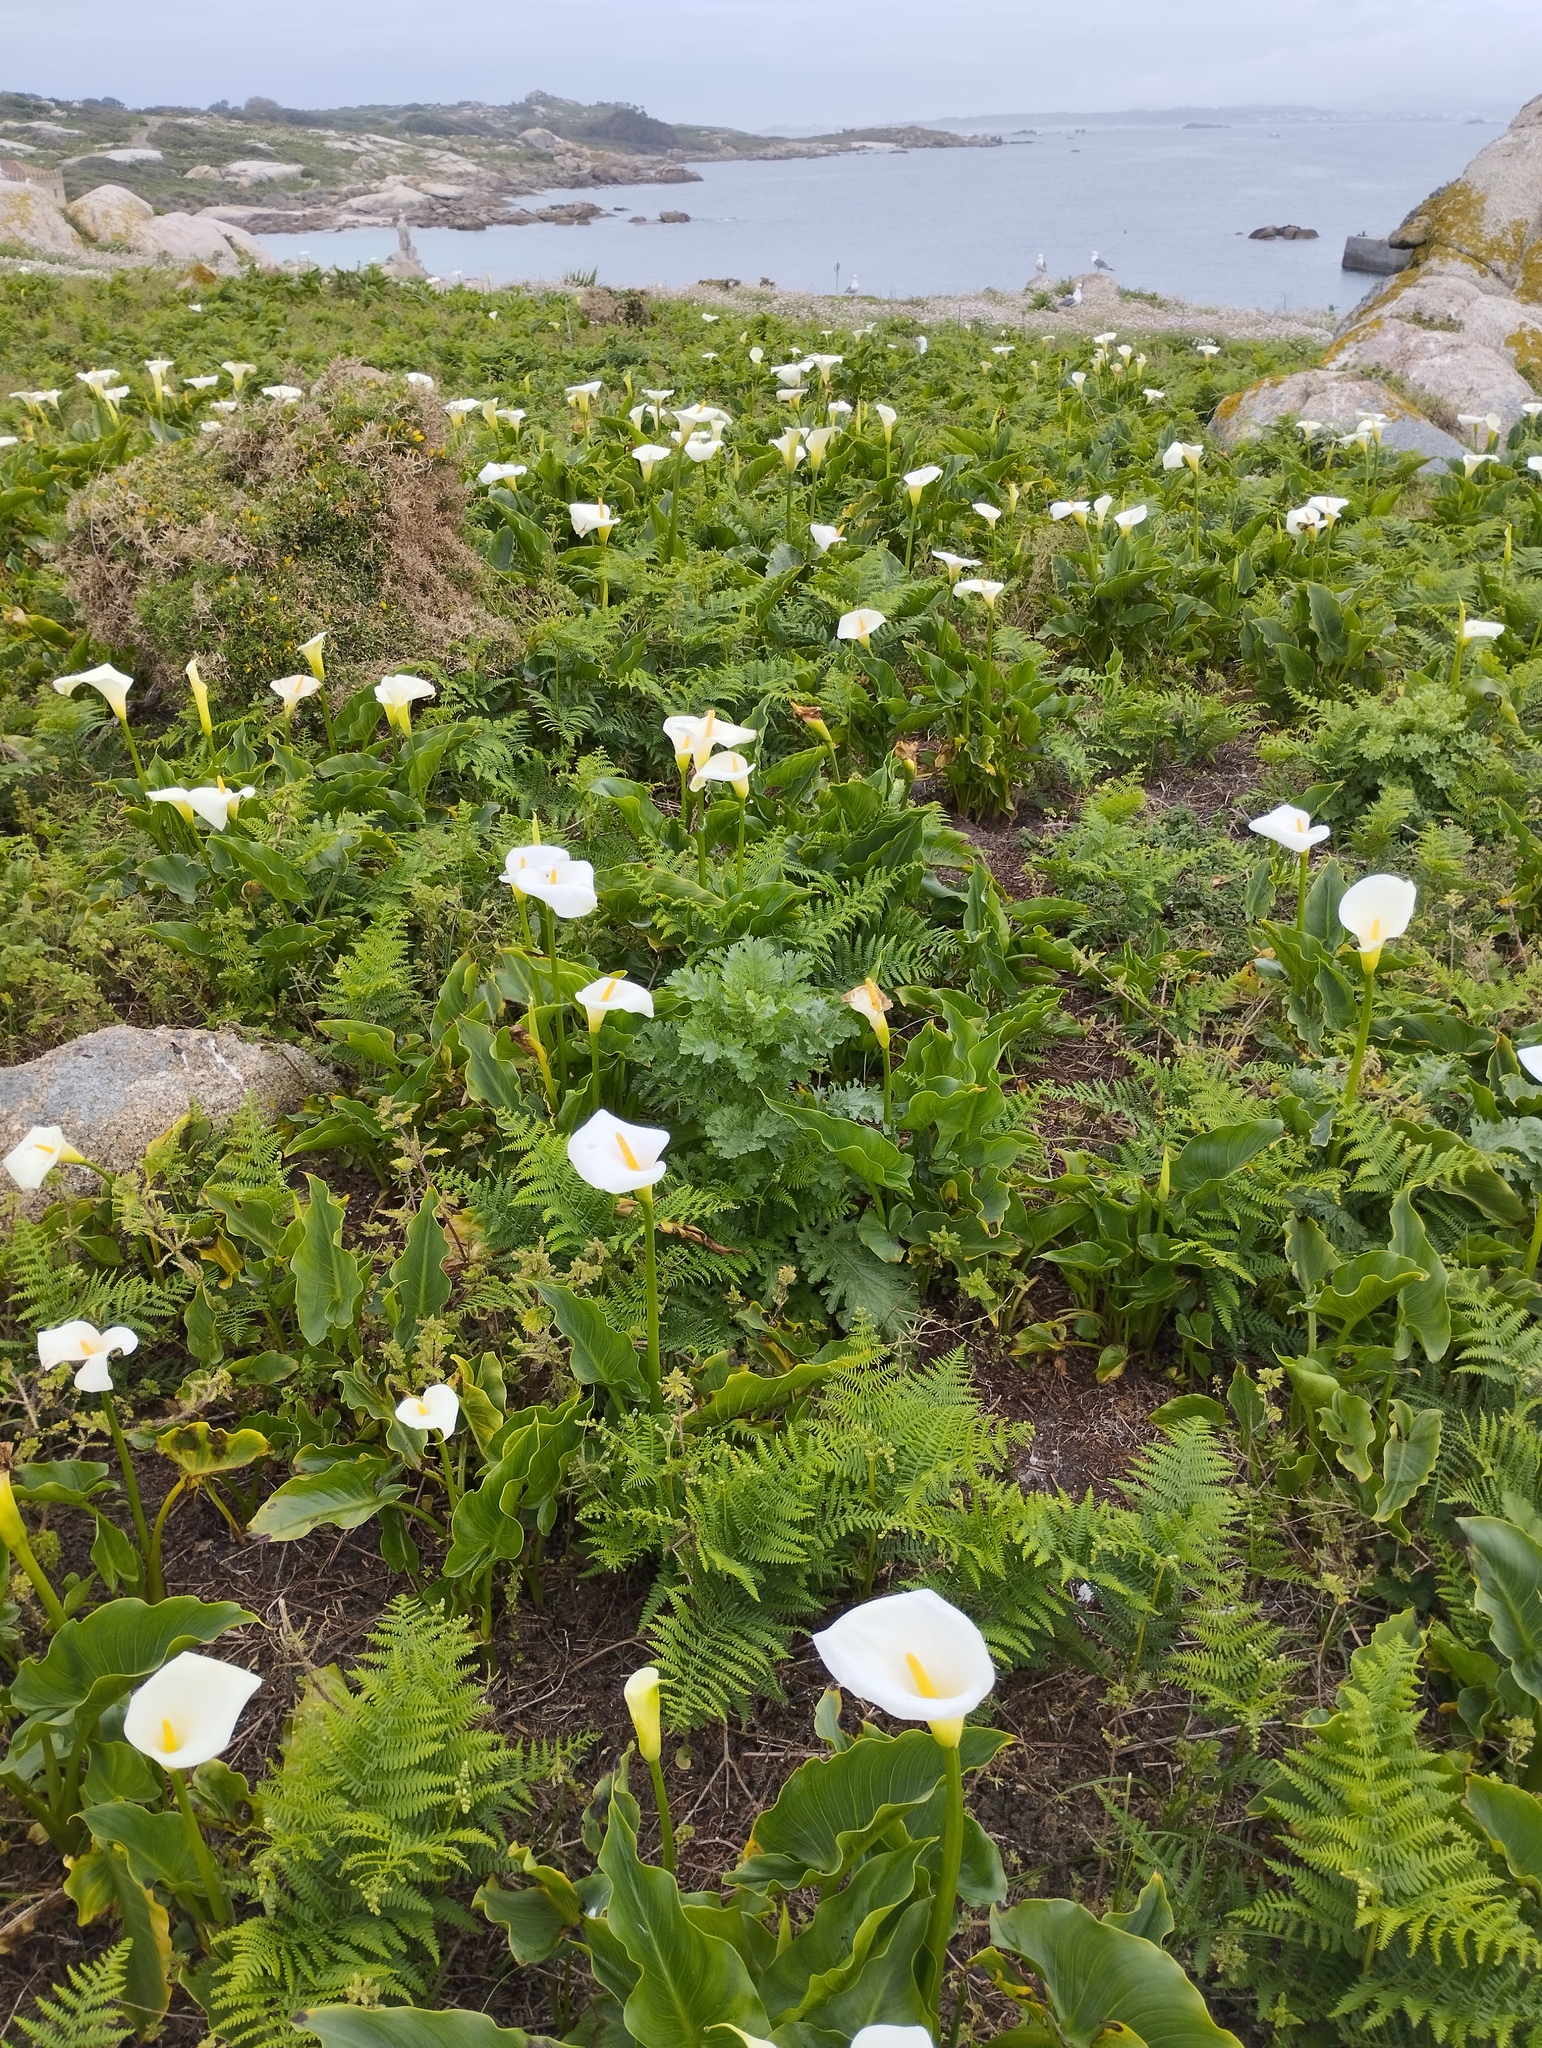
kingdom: Plantae
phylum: Tracheophyta
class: Liliopsida
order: Alismatales
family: Araceae
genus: Zantedeschia
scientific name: Zantedeschia aethiopica
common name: Altar-lily
